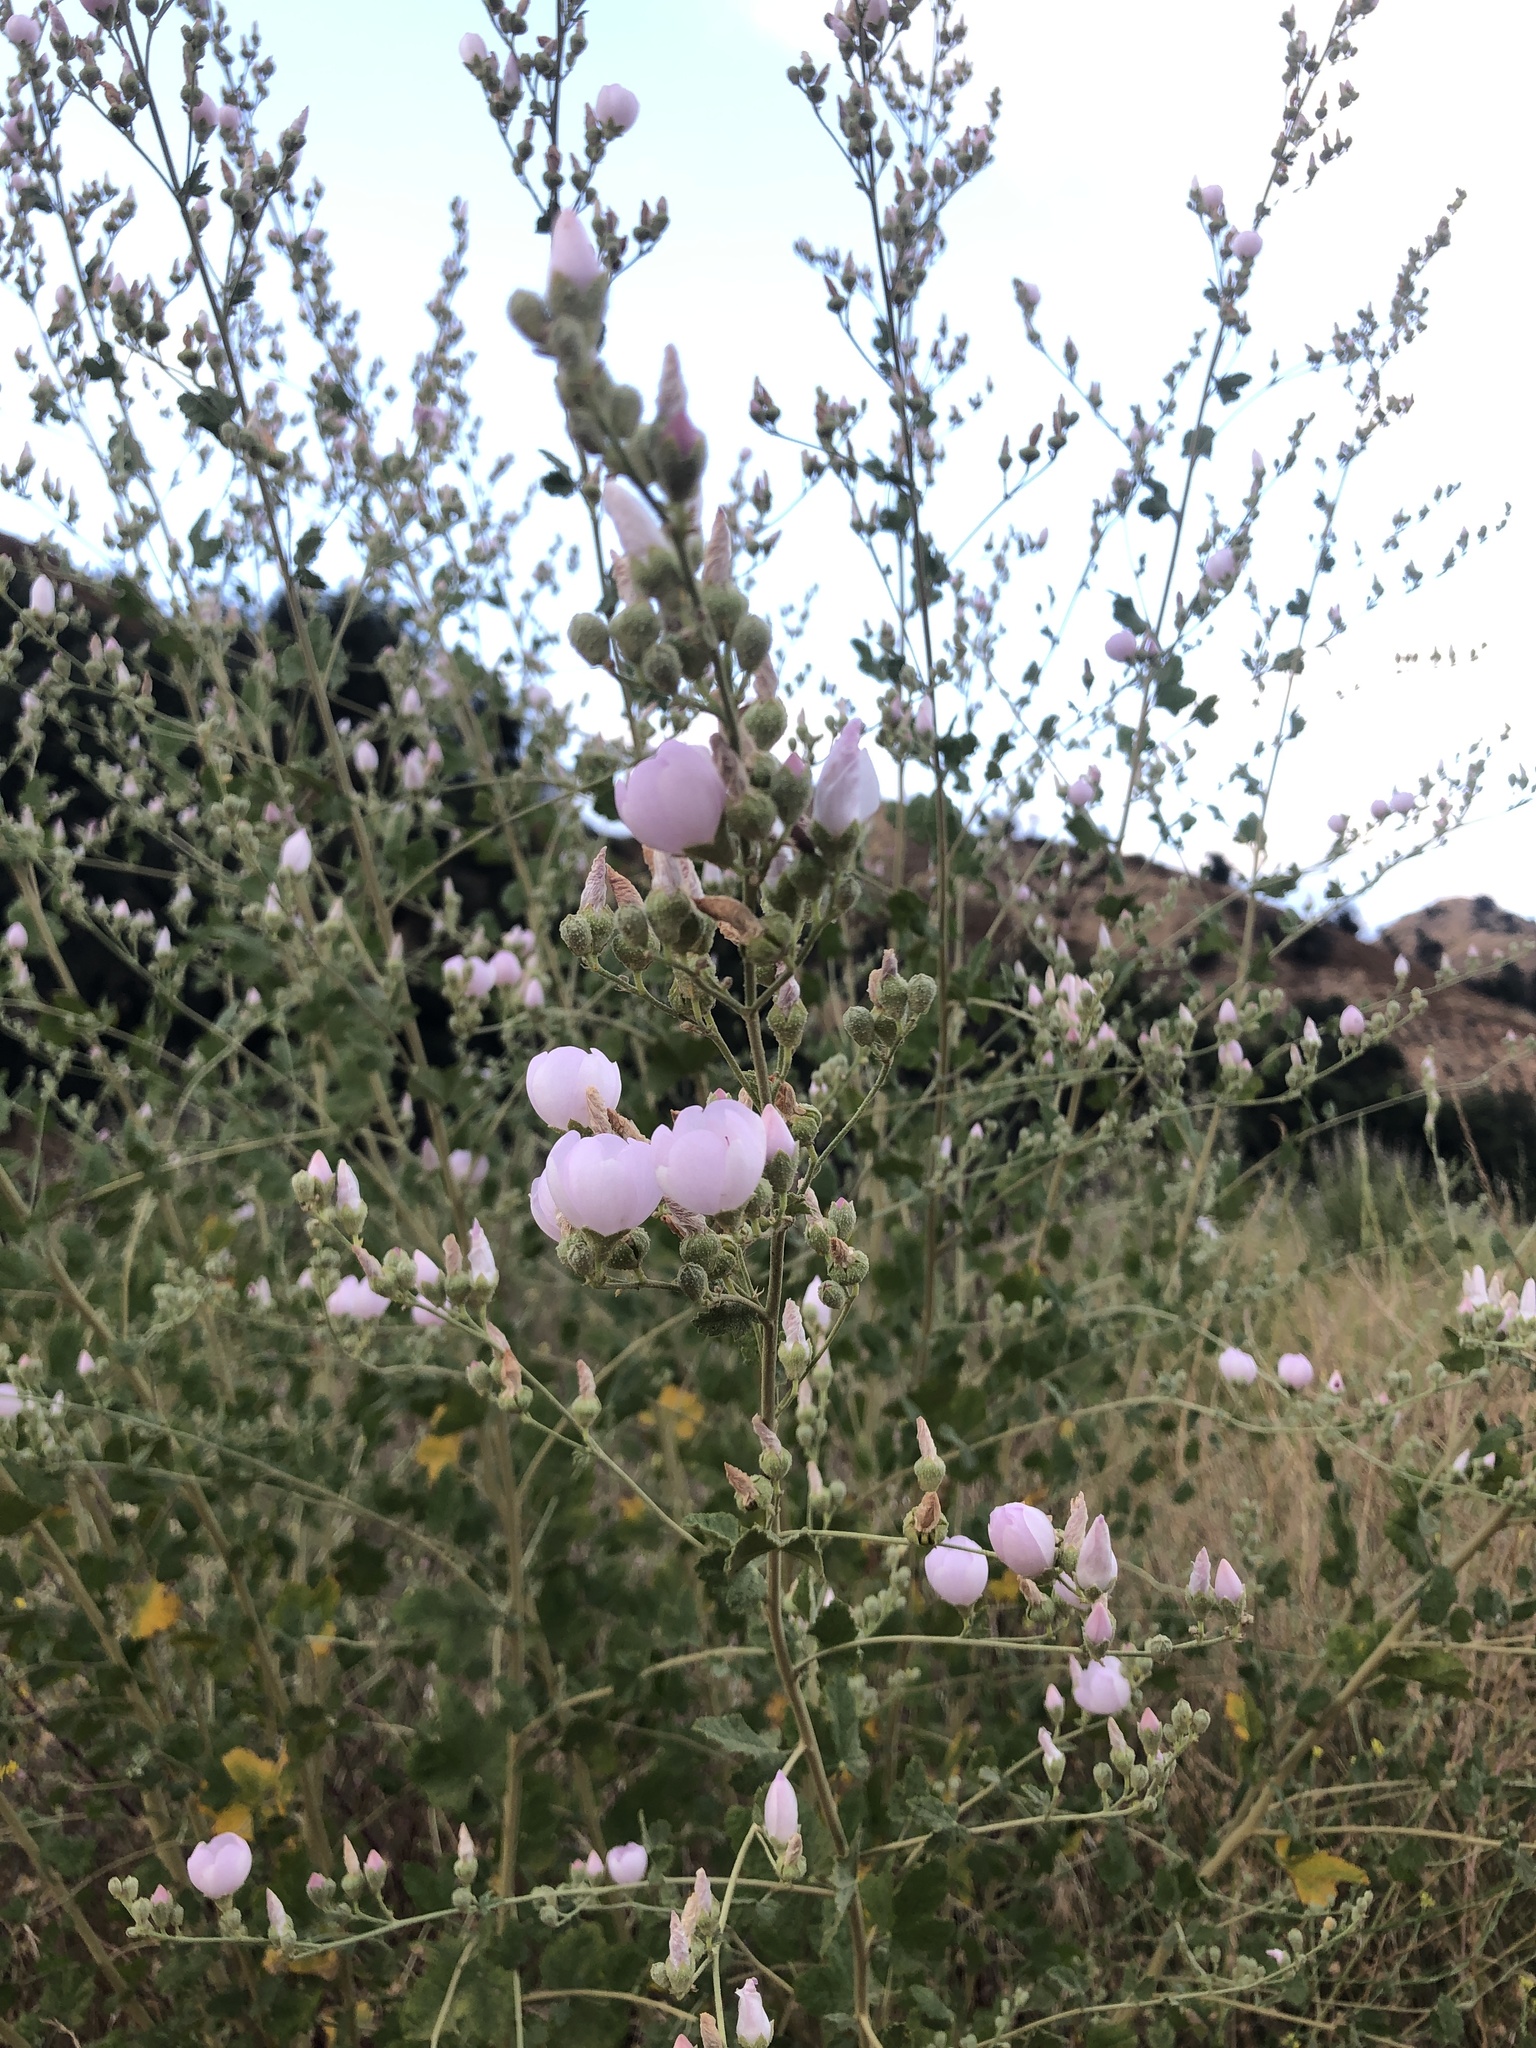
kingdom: Plantae
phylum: Tracheophyta
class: Magnoliopsida
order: Malvales
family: Malvaceae
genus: Malacothamnus
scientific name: Malacothamnus fasciculatus
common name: Sant cruz island bush-mallow
